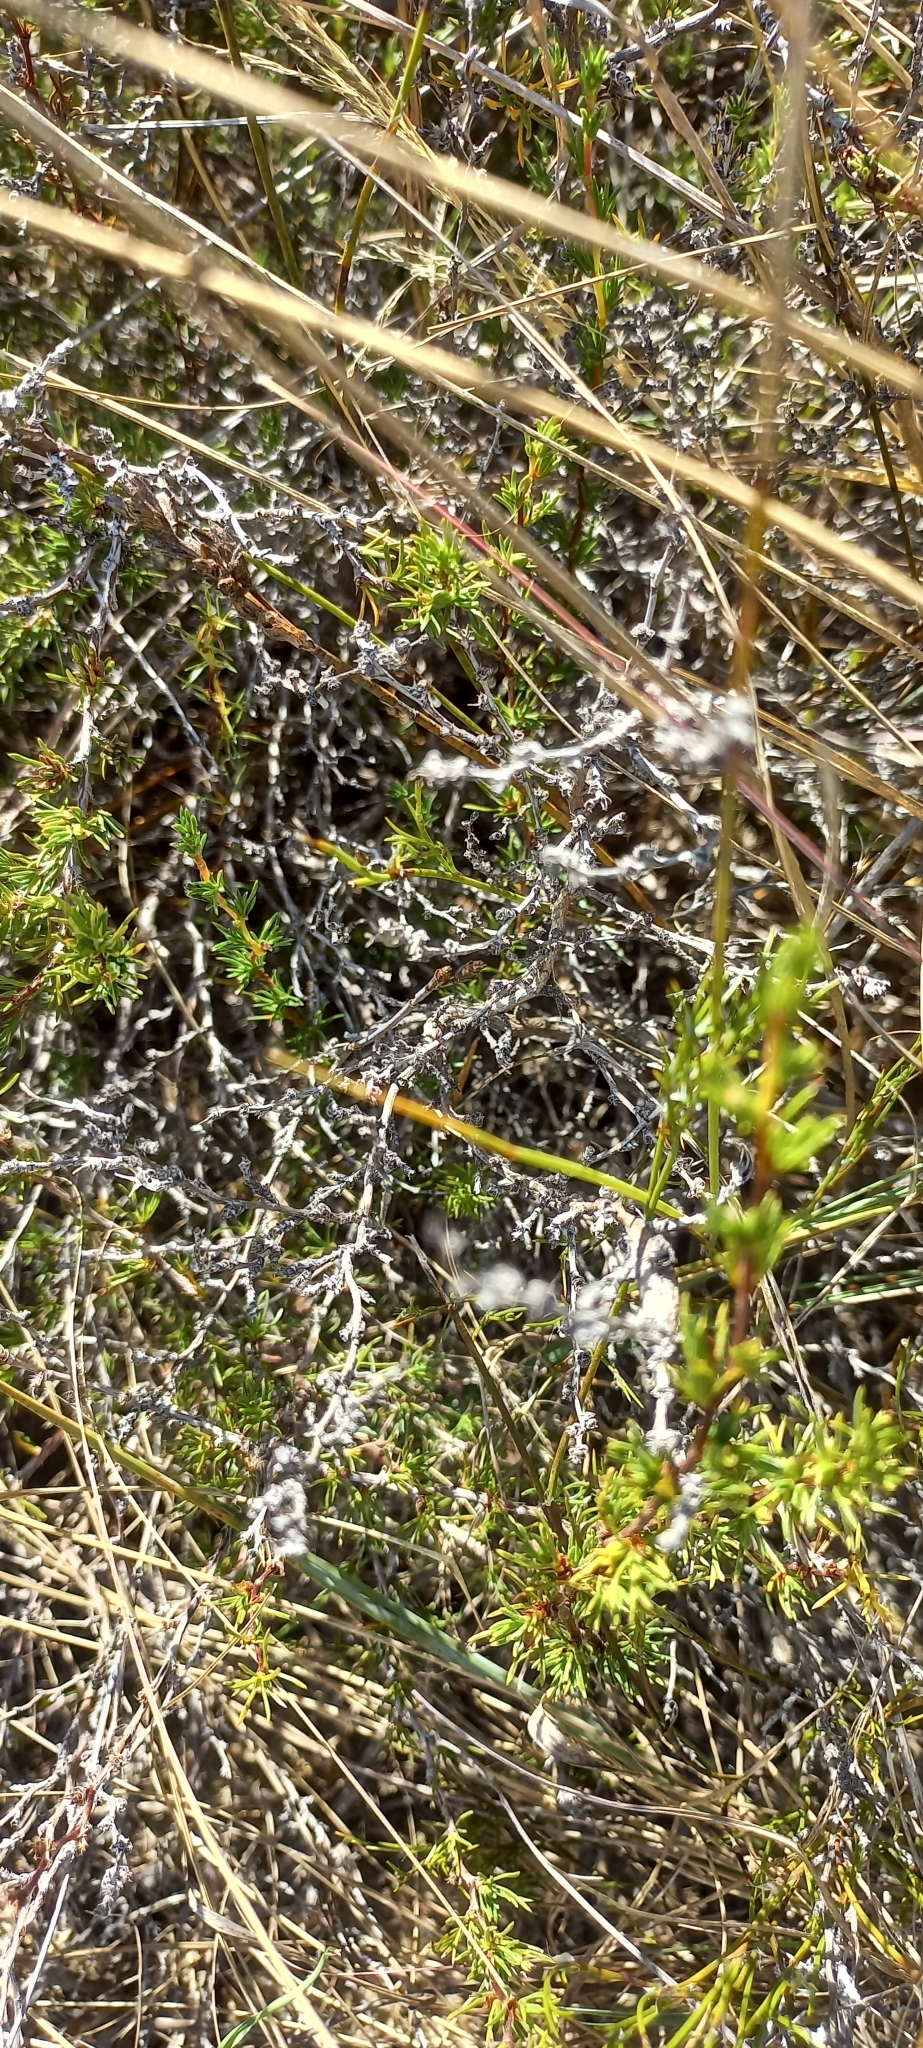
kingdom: Plantae
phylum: Tracheophyta
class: Magnoliopsida
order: Rosales
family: Rosaceae
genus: Cliffortia
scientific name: Cliffortia juniperina
